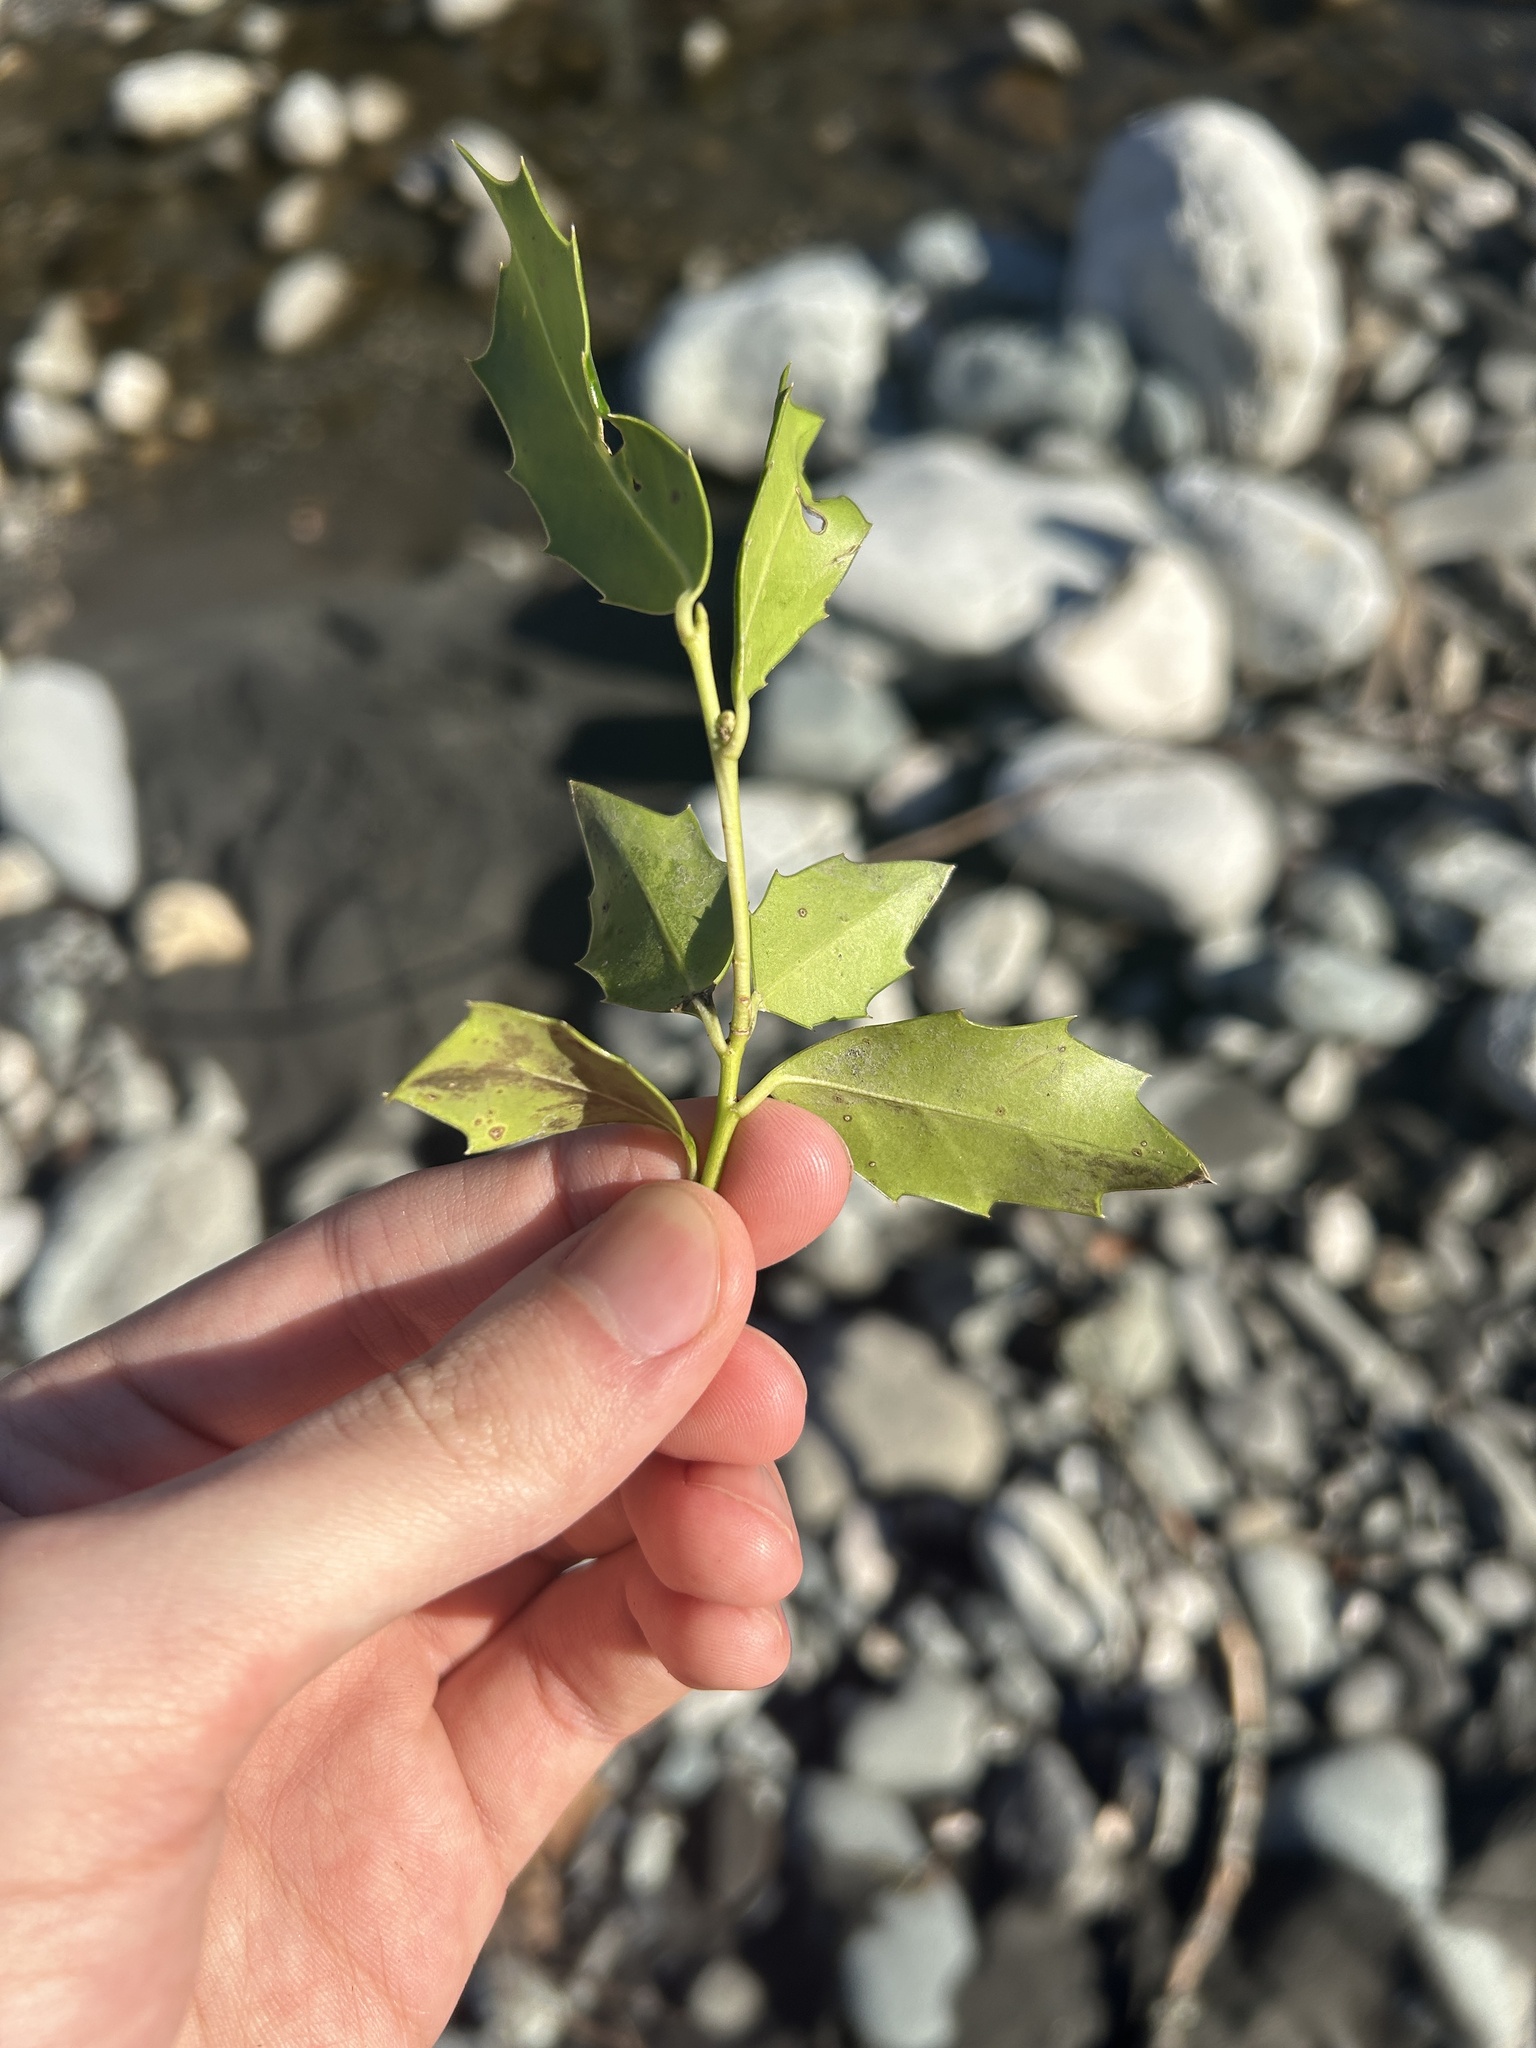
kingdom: Plantae
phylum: Tracheophyta
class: Magnoliopsida
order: Aquifoliales
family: Aquifoliaceae
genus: Ilex
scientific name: Ilex colchica
